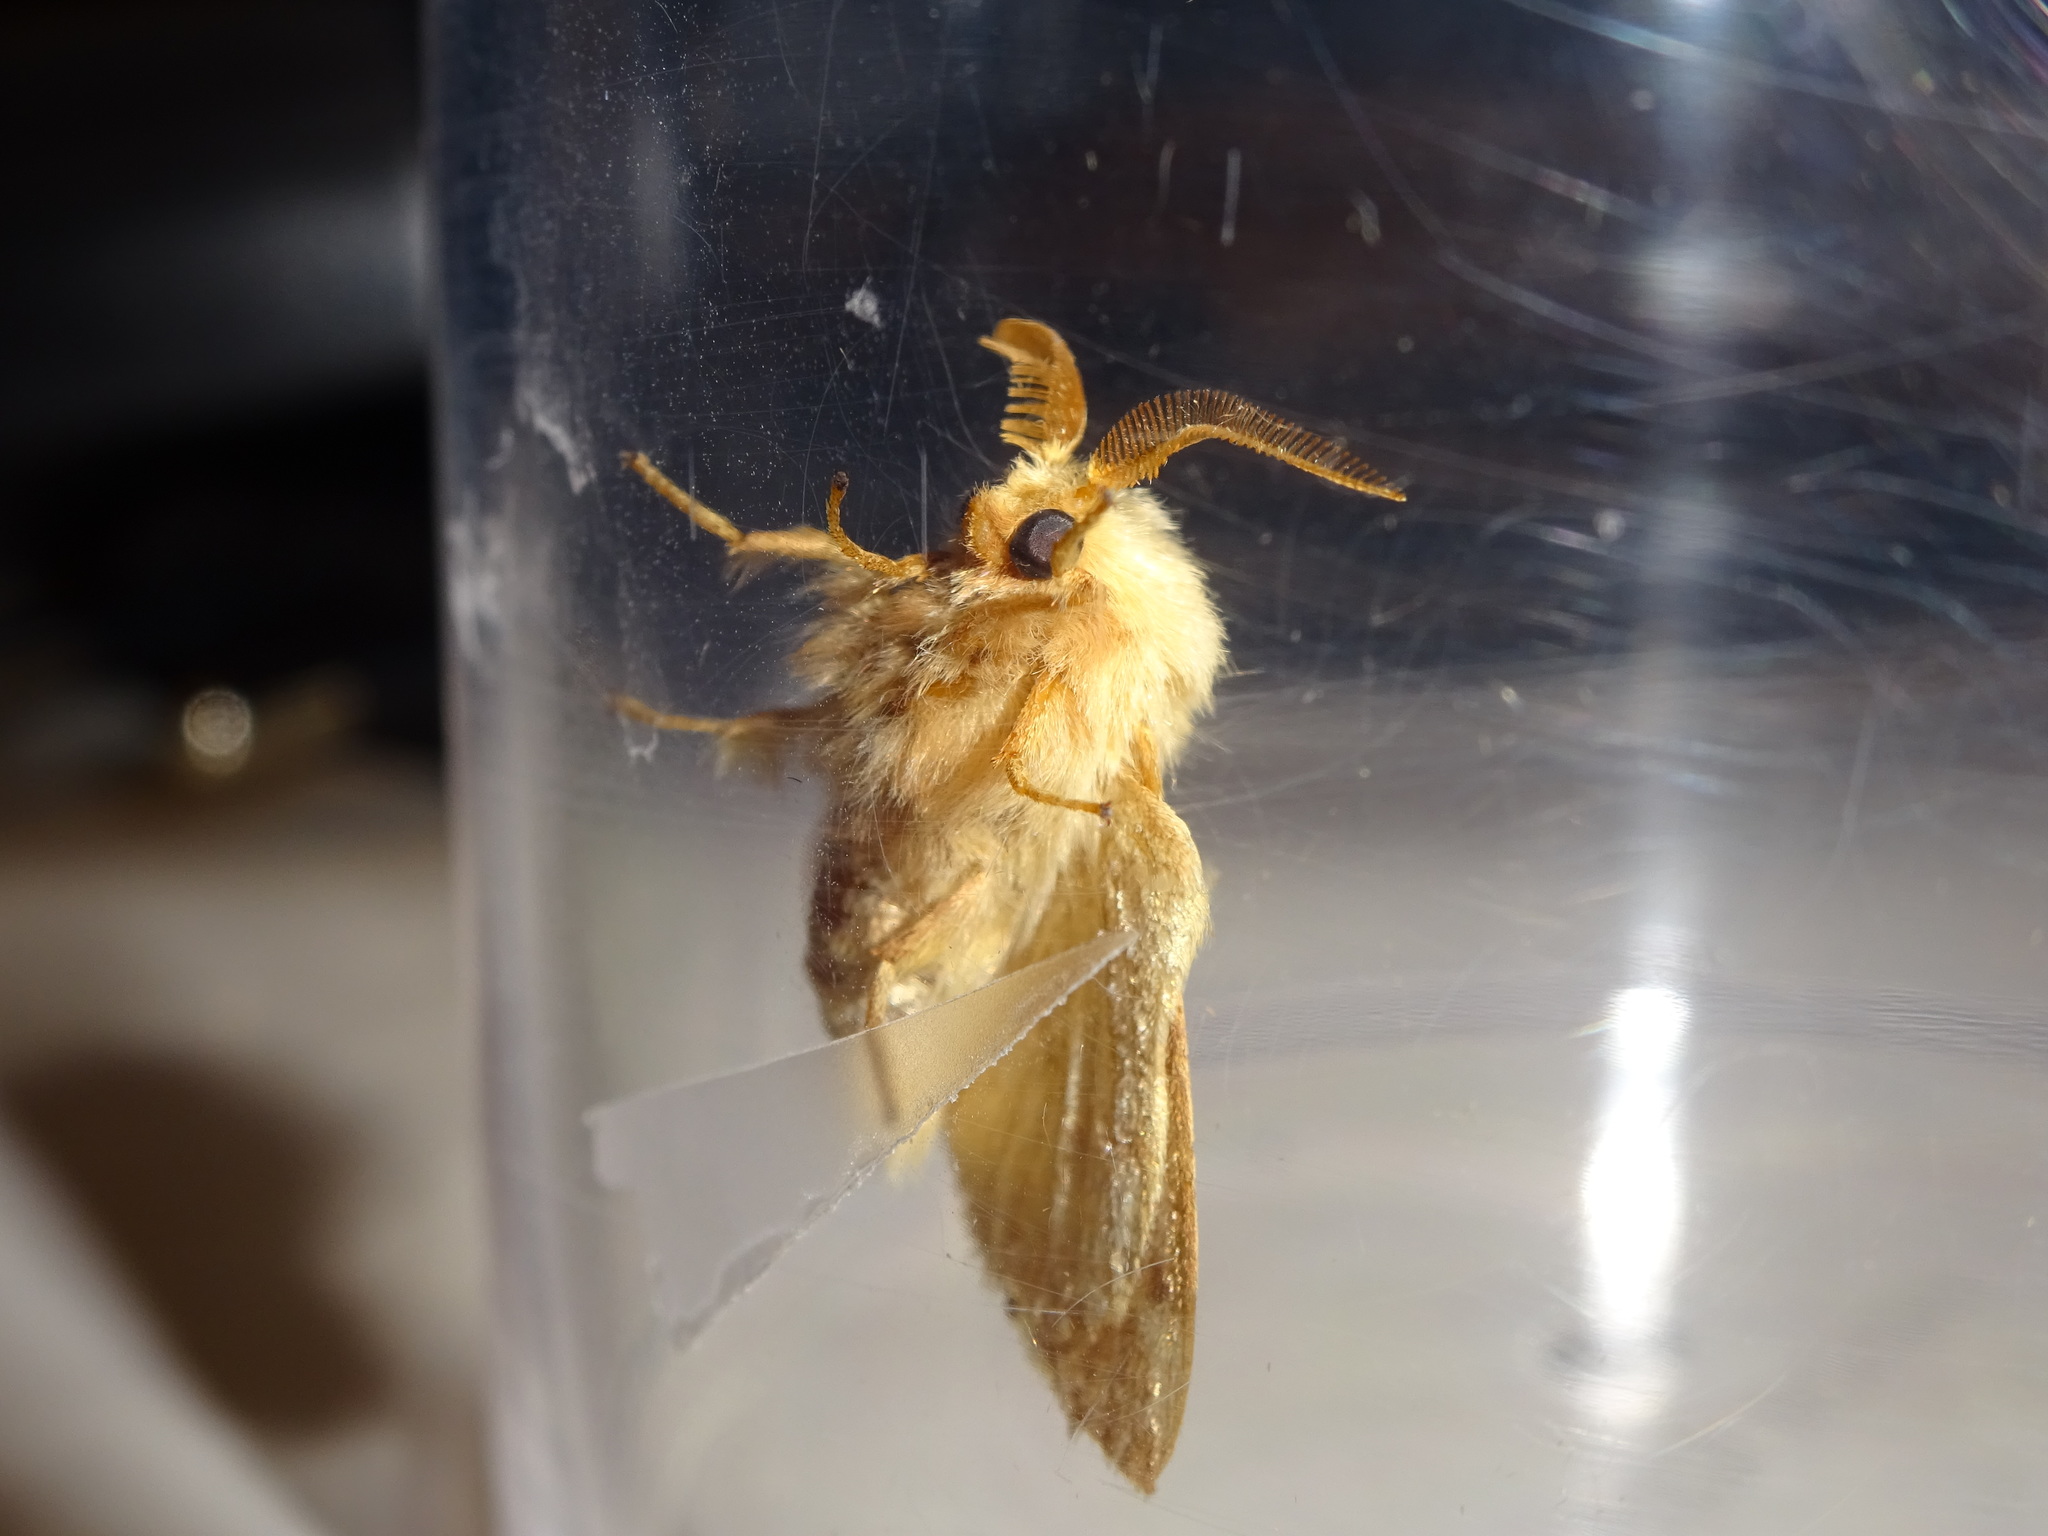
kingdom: Animalia
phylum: Arthropoda
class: Insecta
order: Lepidoptera
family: Lasiocampidae
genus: Malacosoma
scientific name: Malacosoma neustria
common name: The lackey
